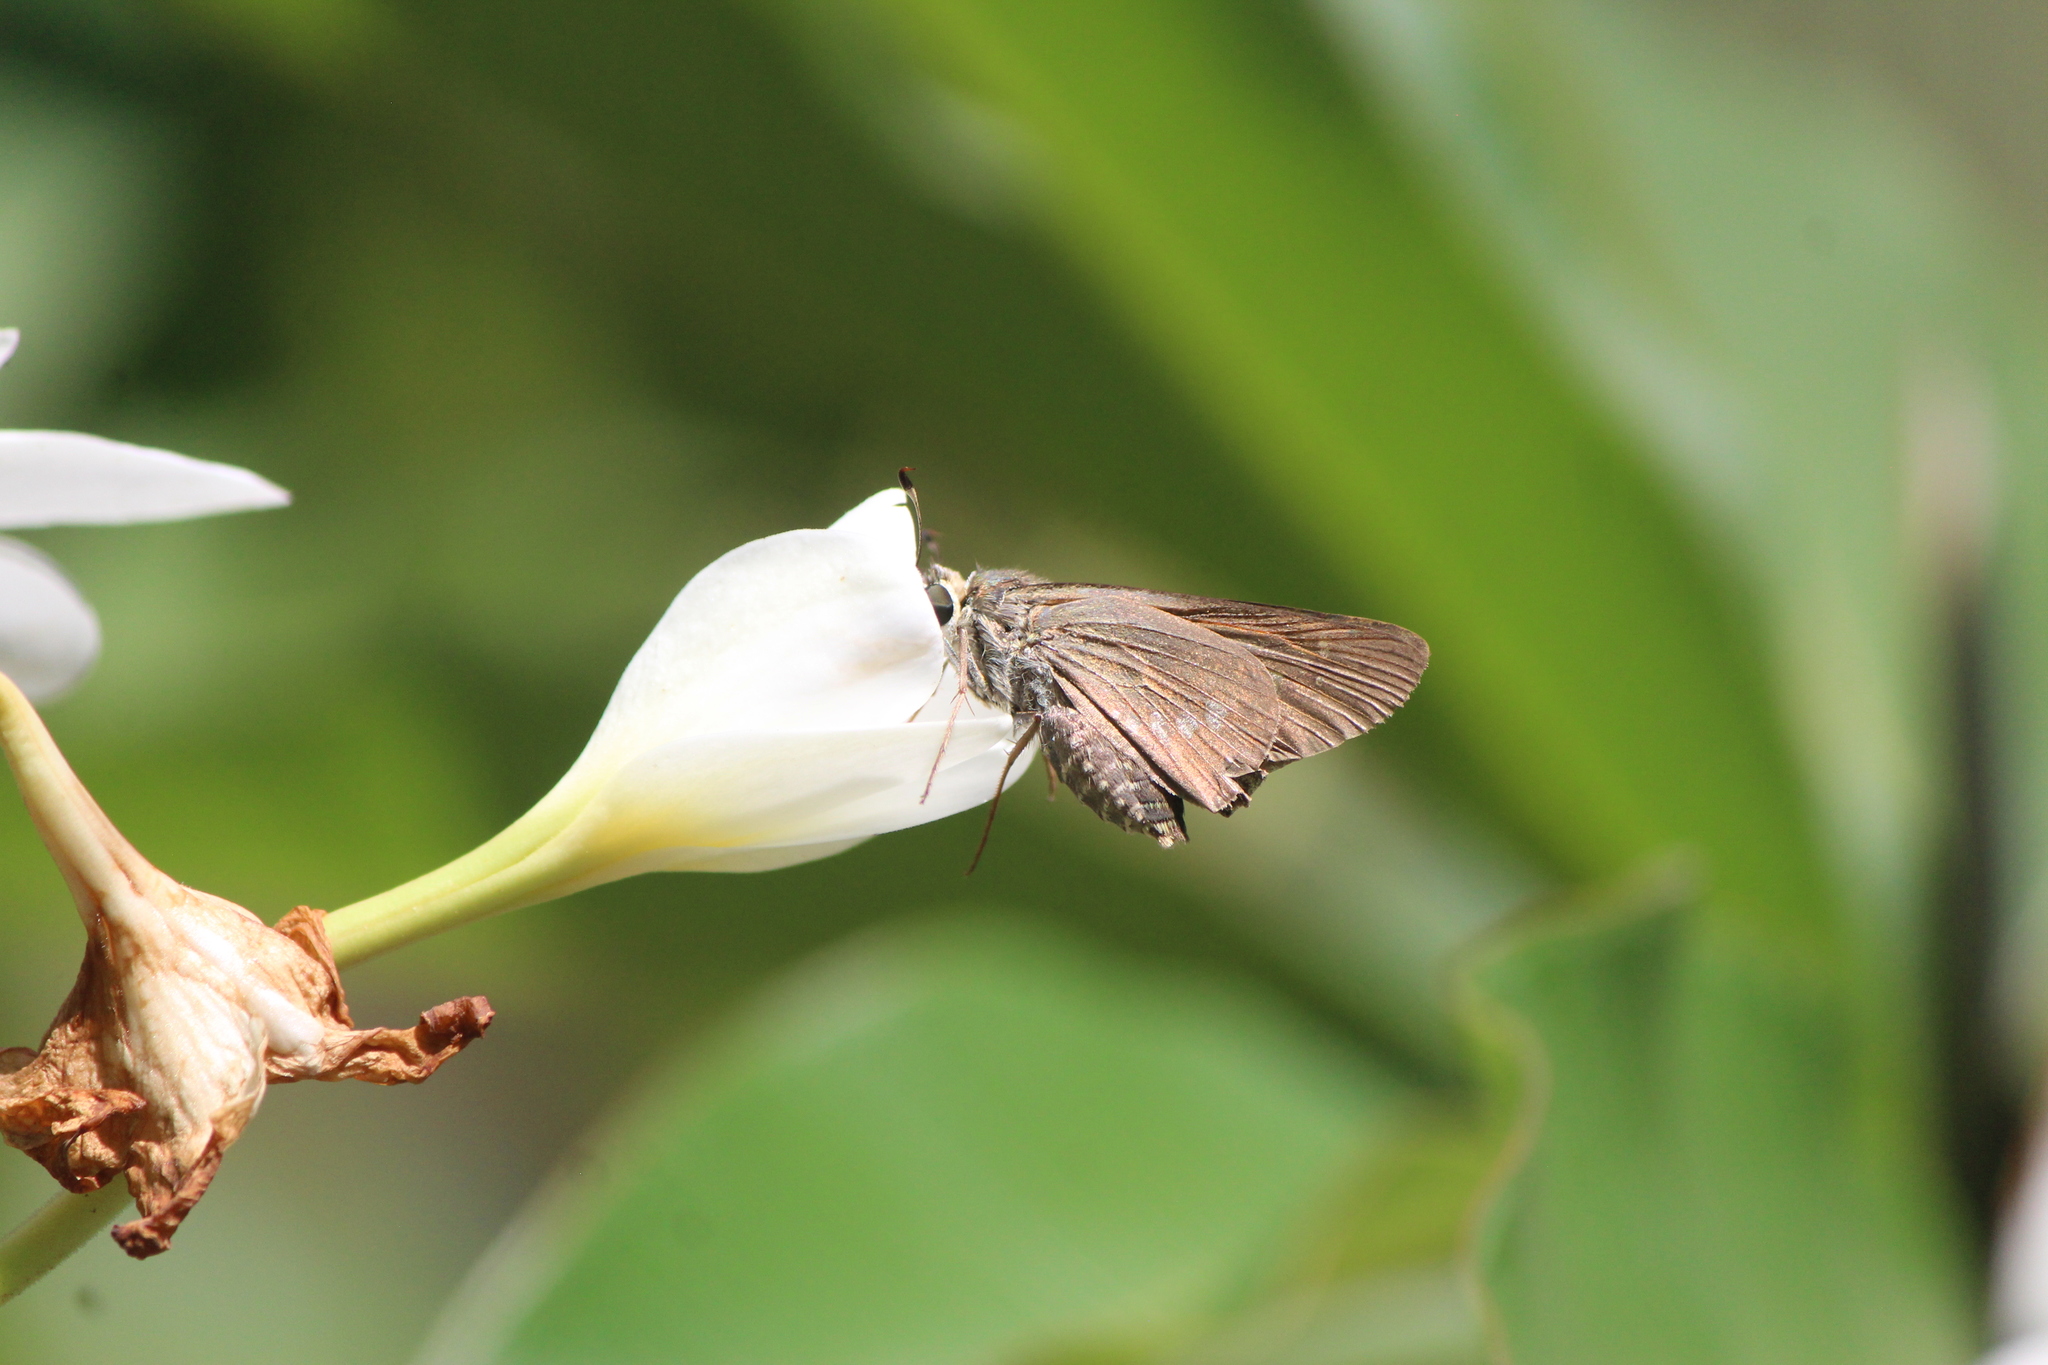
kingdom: Animalia
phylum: Arthropoda
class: Insecta
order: Lepidoptera
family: Hesperiidae
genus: Calpodes
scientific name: Calpodes ethlius
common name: Brazilian skipper
